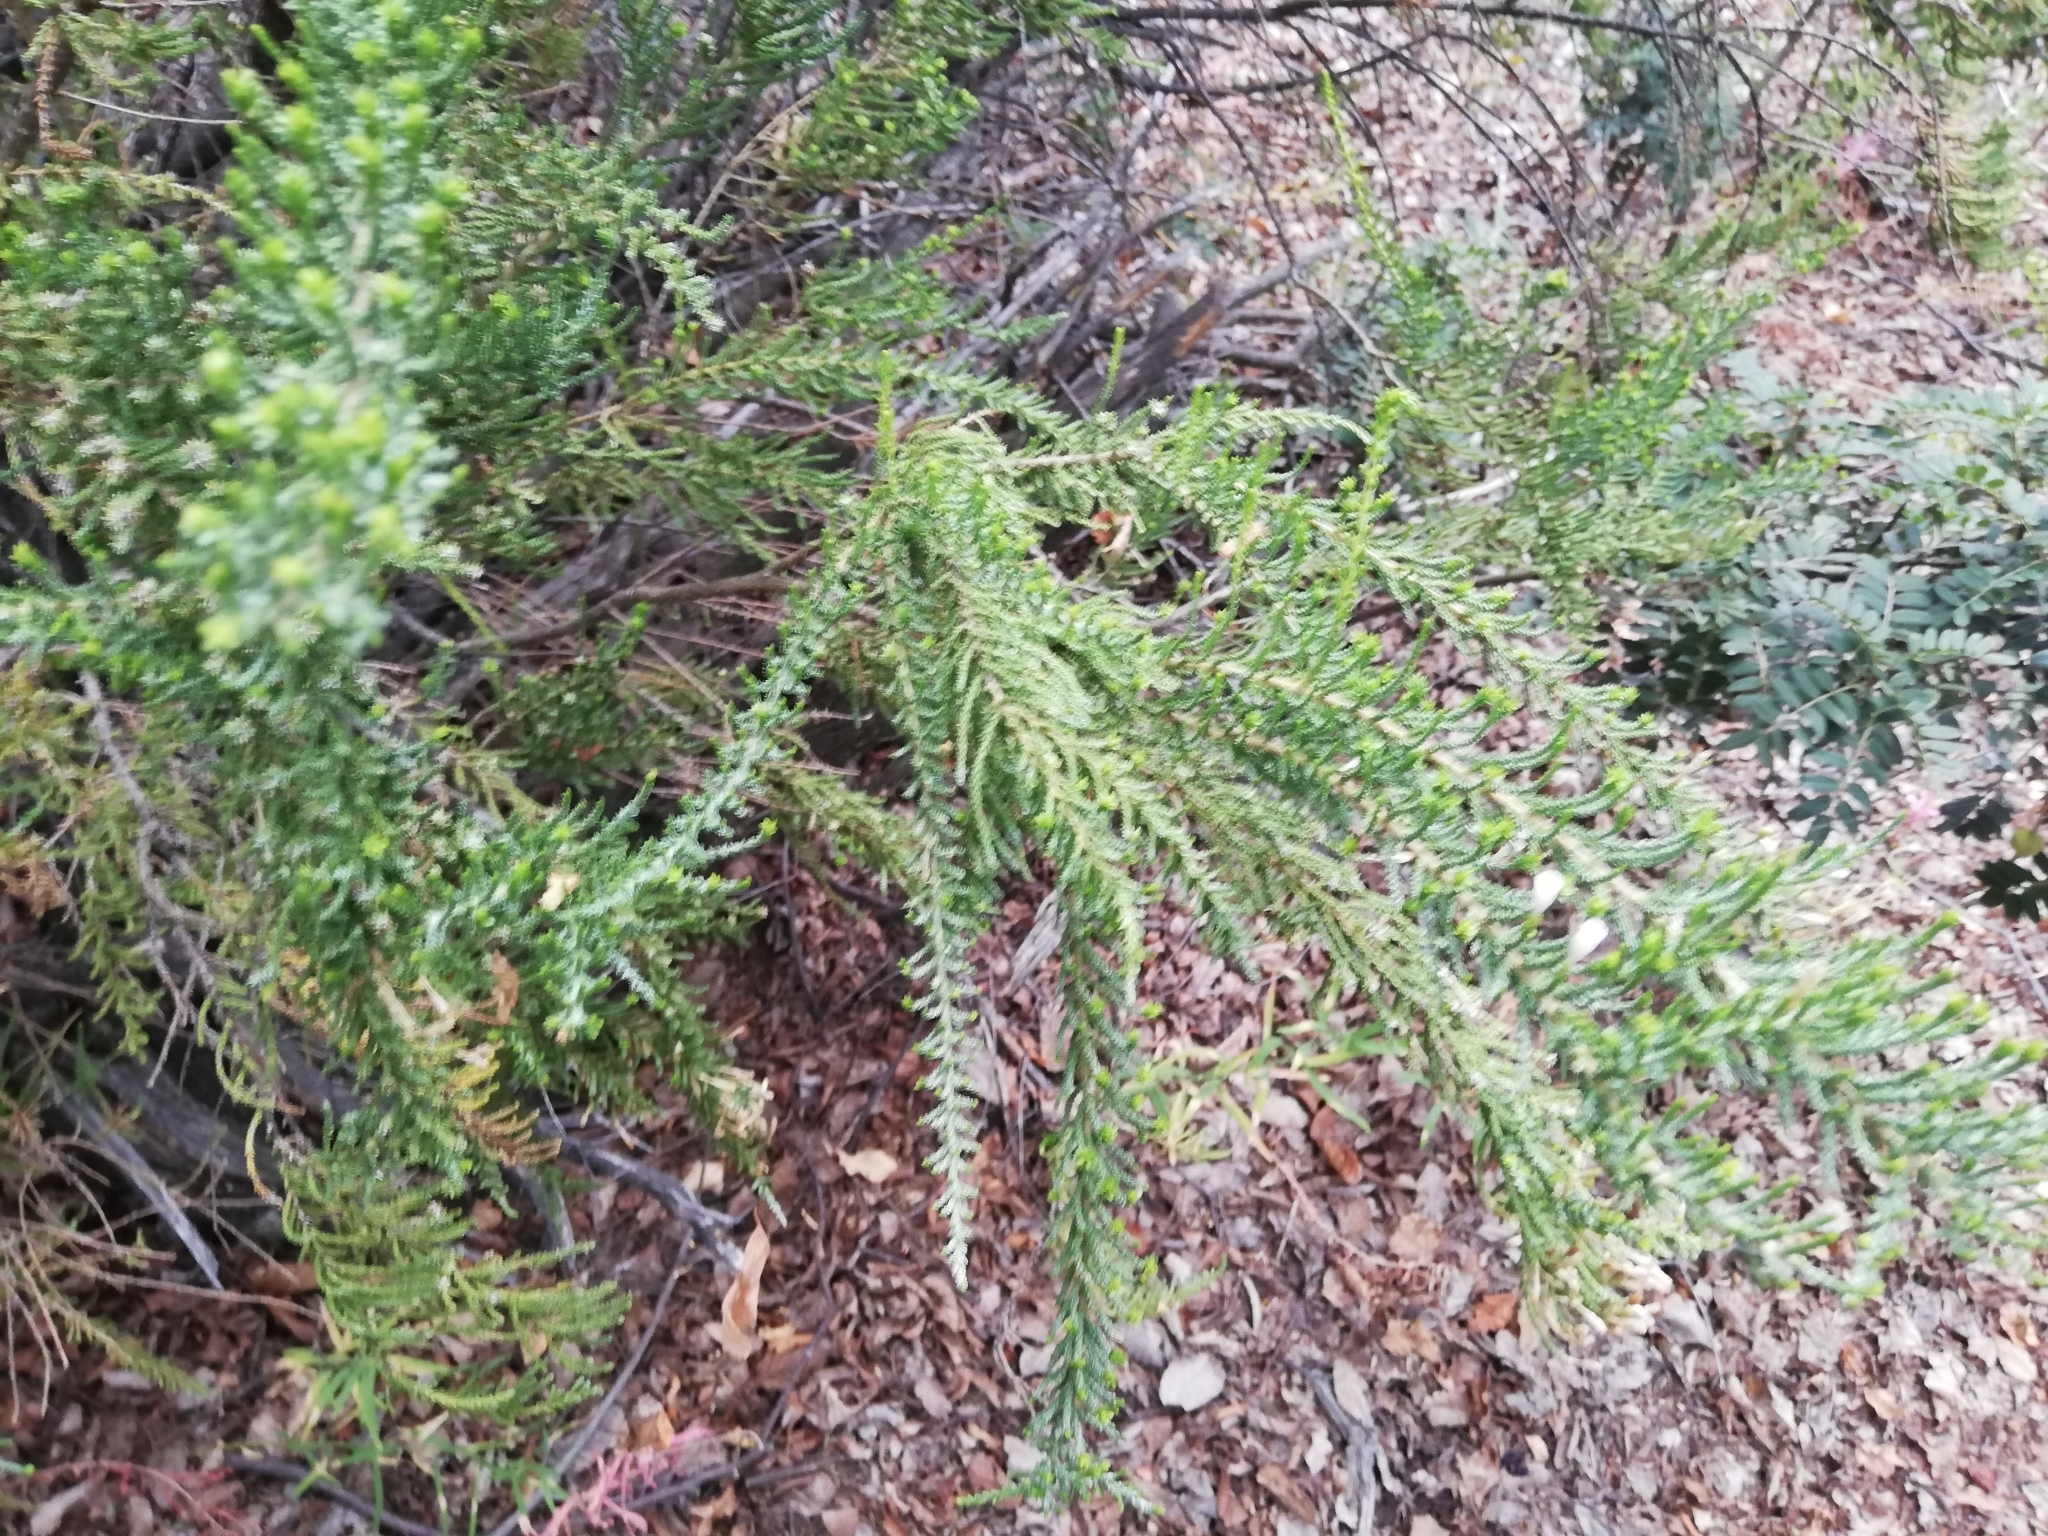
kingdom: Plantae
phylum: Tracheophyta
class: Magnoliopsida
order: Solanales
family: Solanaceae
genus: Fabiana
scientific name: Fabiana imbricata
